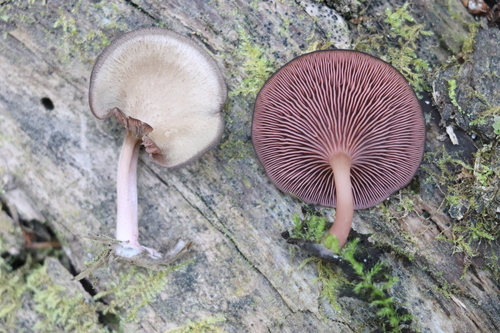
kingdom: Fungi
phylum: Basidiomycota
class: Agaricomycetes
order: Agaricales
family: Hygrophoraceae
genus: Arrhenia
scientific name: Arrhenia discorosea
